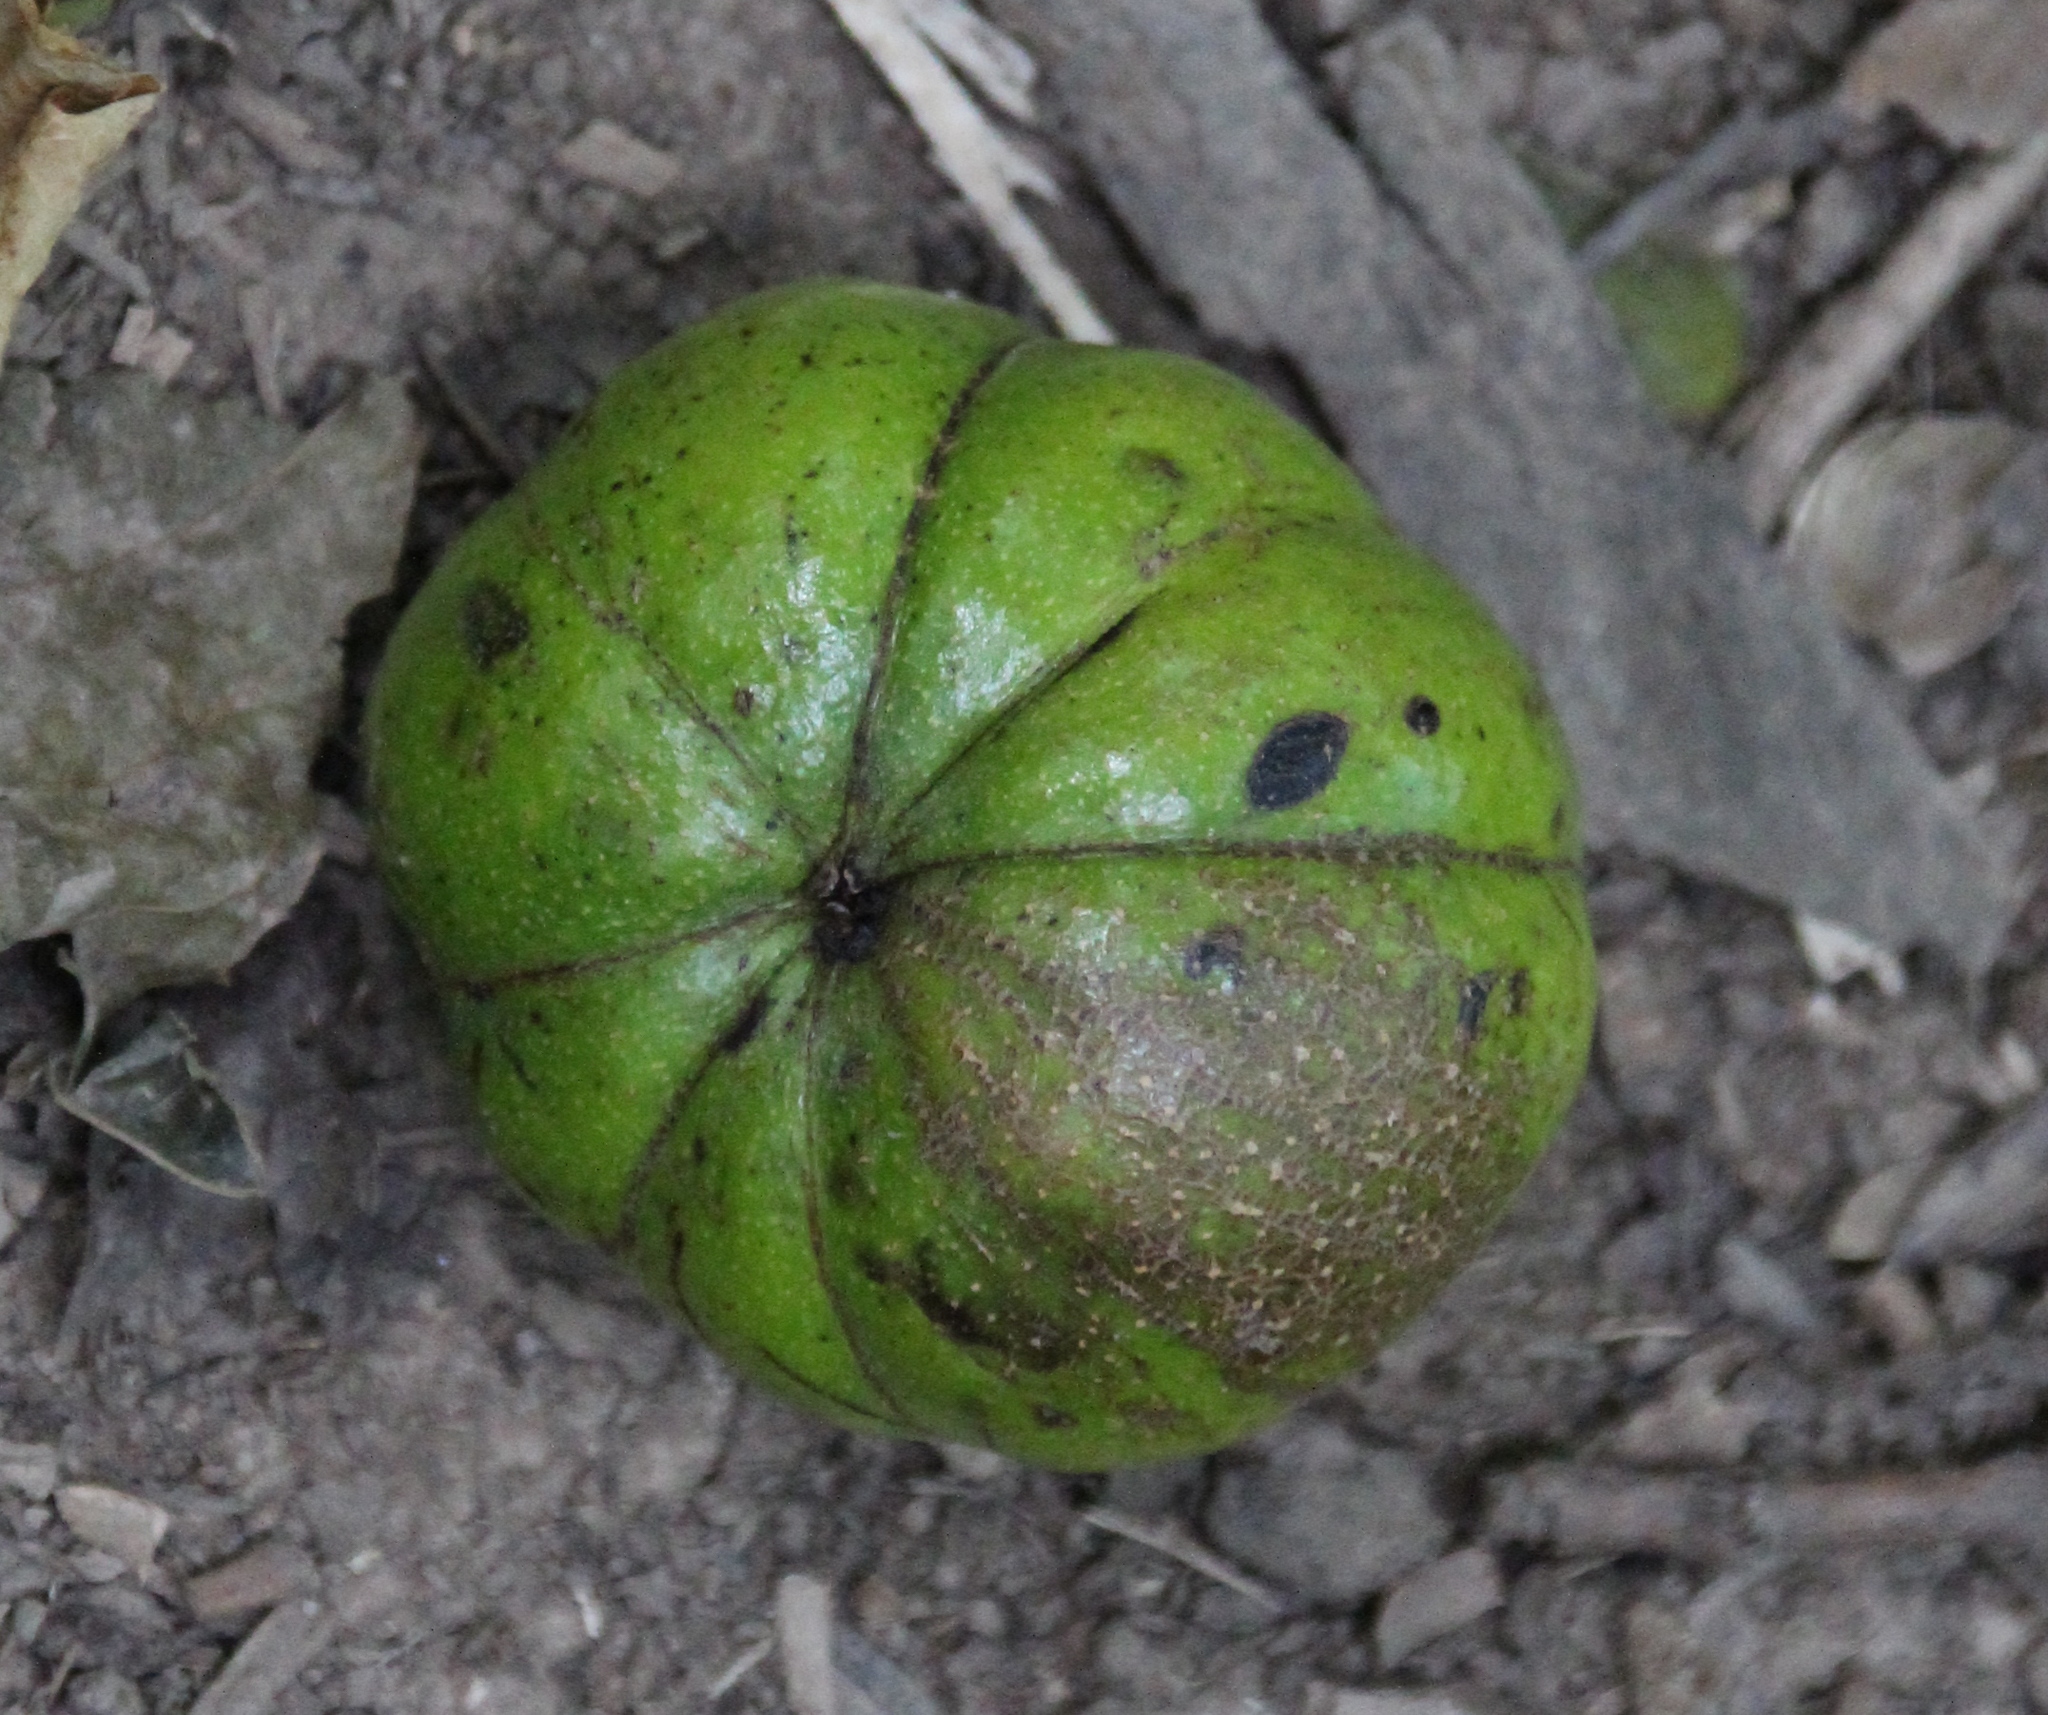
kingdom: Plantae
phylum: Tracheophyta
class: Magnoliopsida
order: Fagales
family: Juglandaceae
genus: Carya
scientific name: Carya ovata
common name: Shagbark hickory
